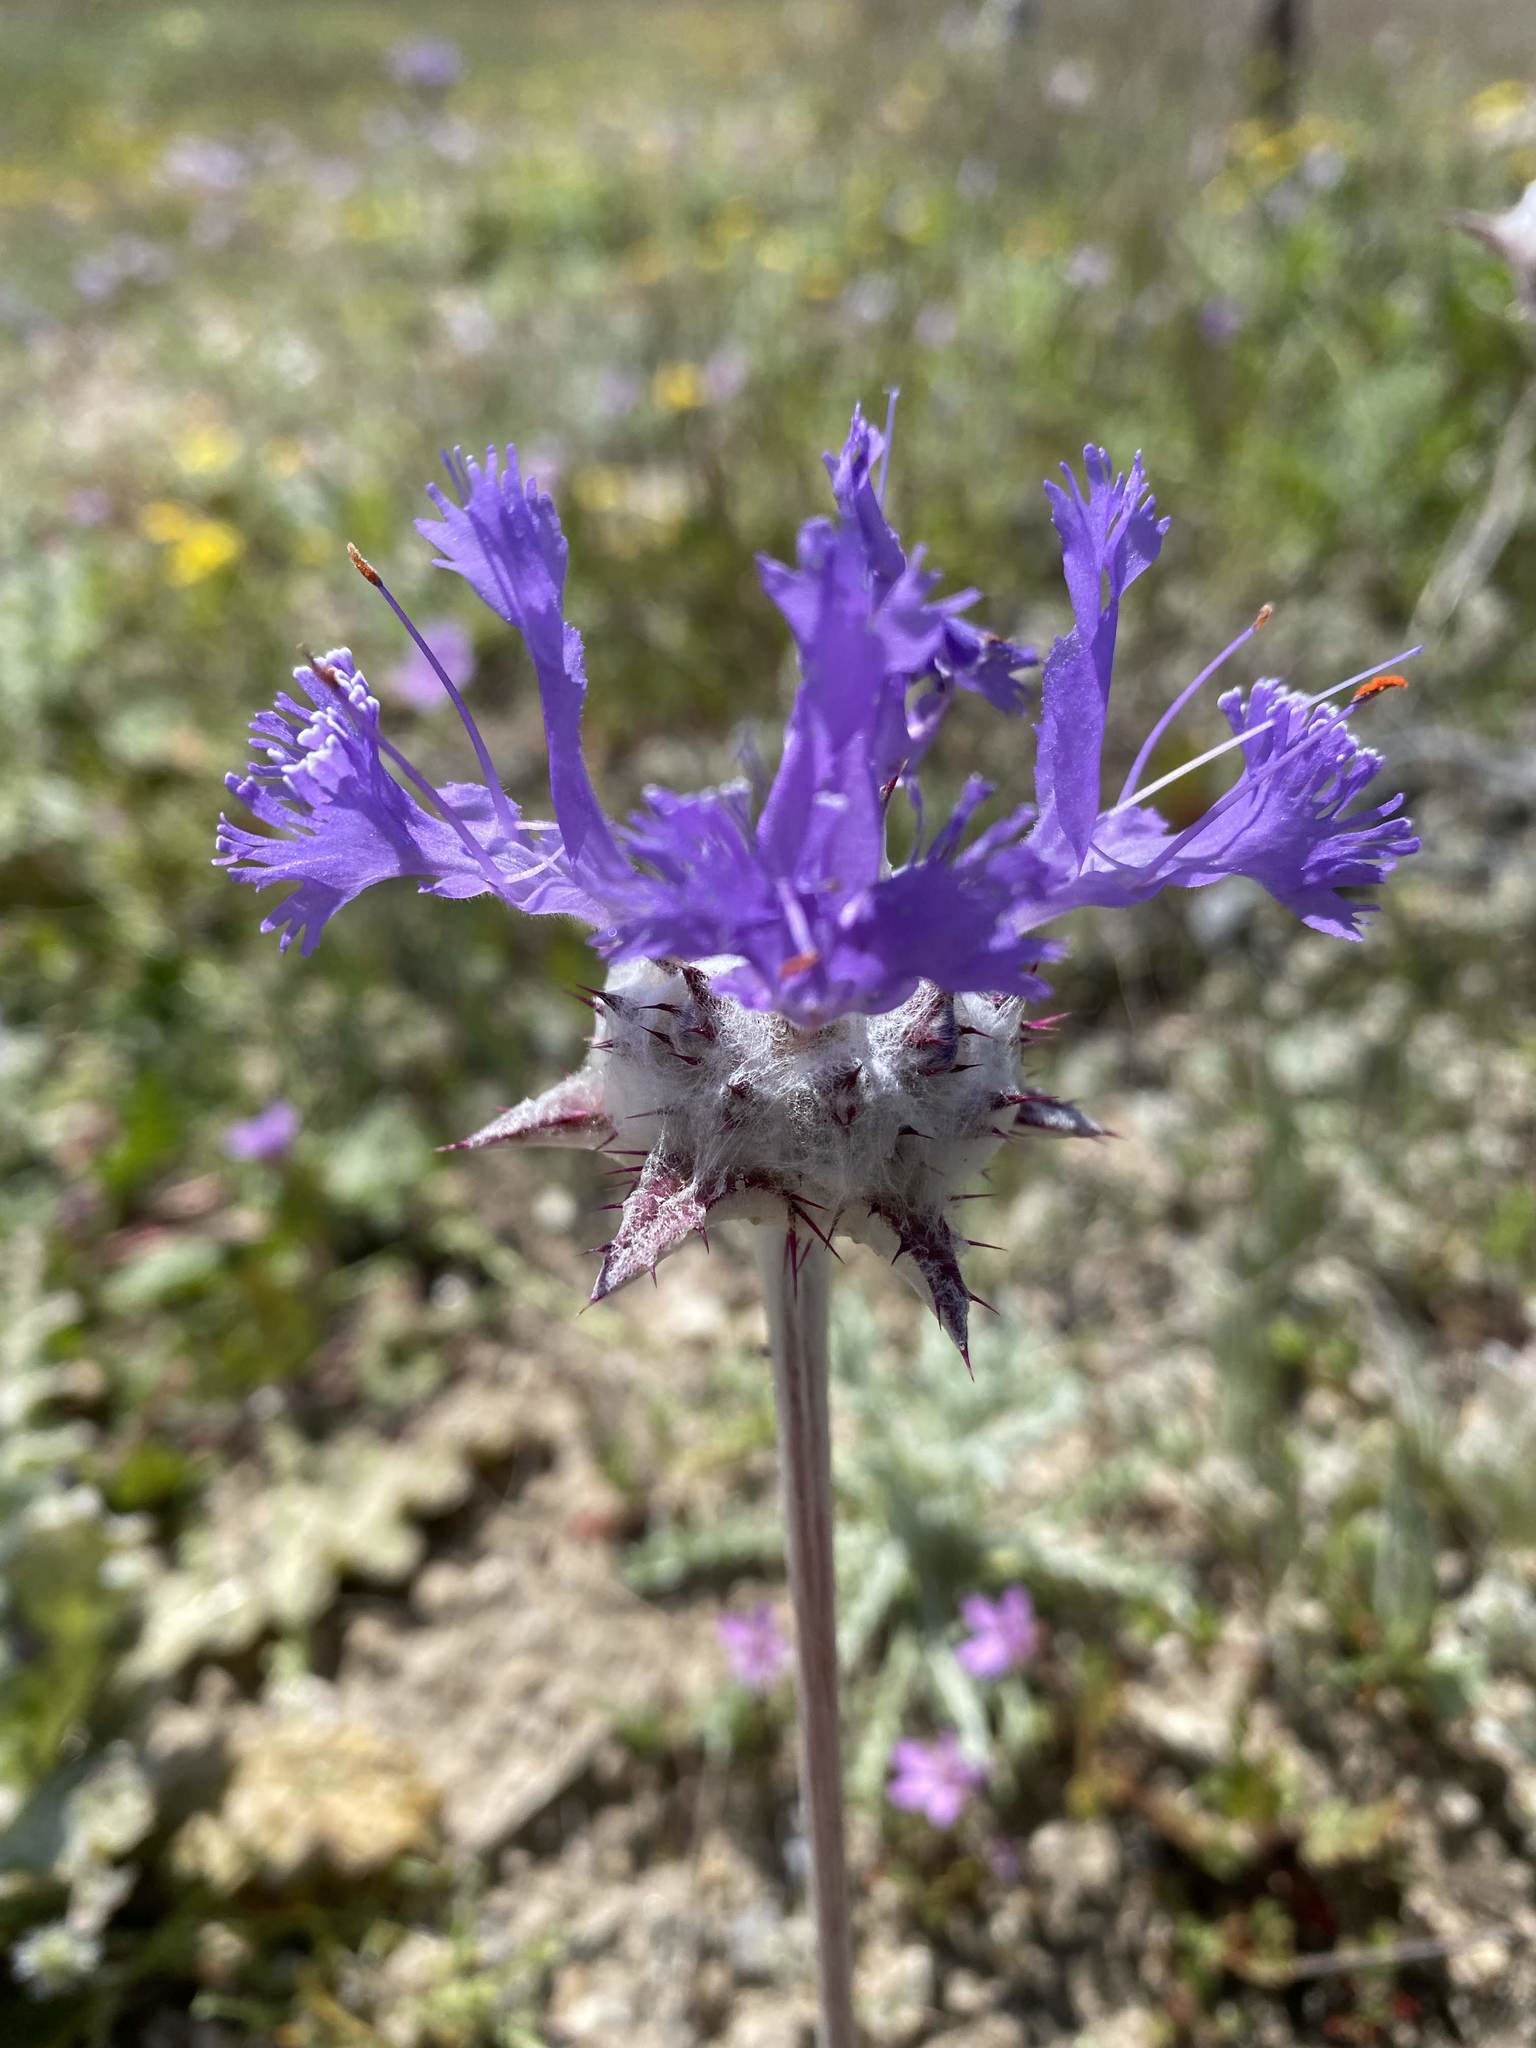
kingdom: Plantae
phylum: Tracheophyta
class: Magnoliopsida
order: Lamiales
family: Lamiaceae
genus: Salvia
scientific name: Salvia carduacea
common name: Thistle sage
